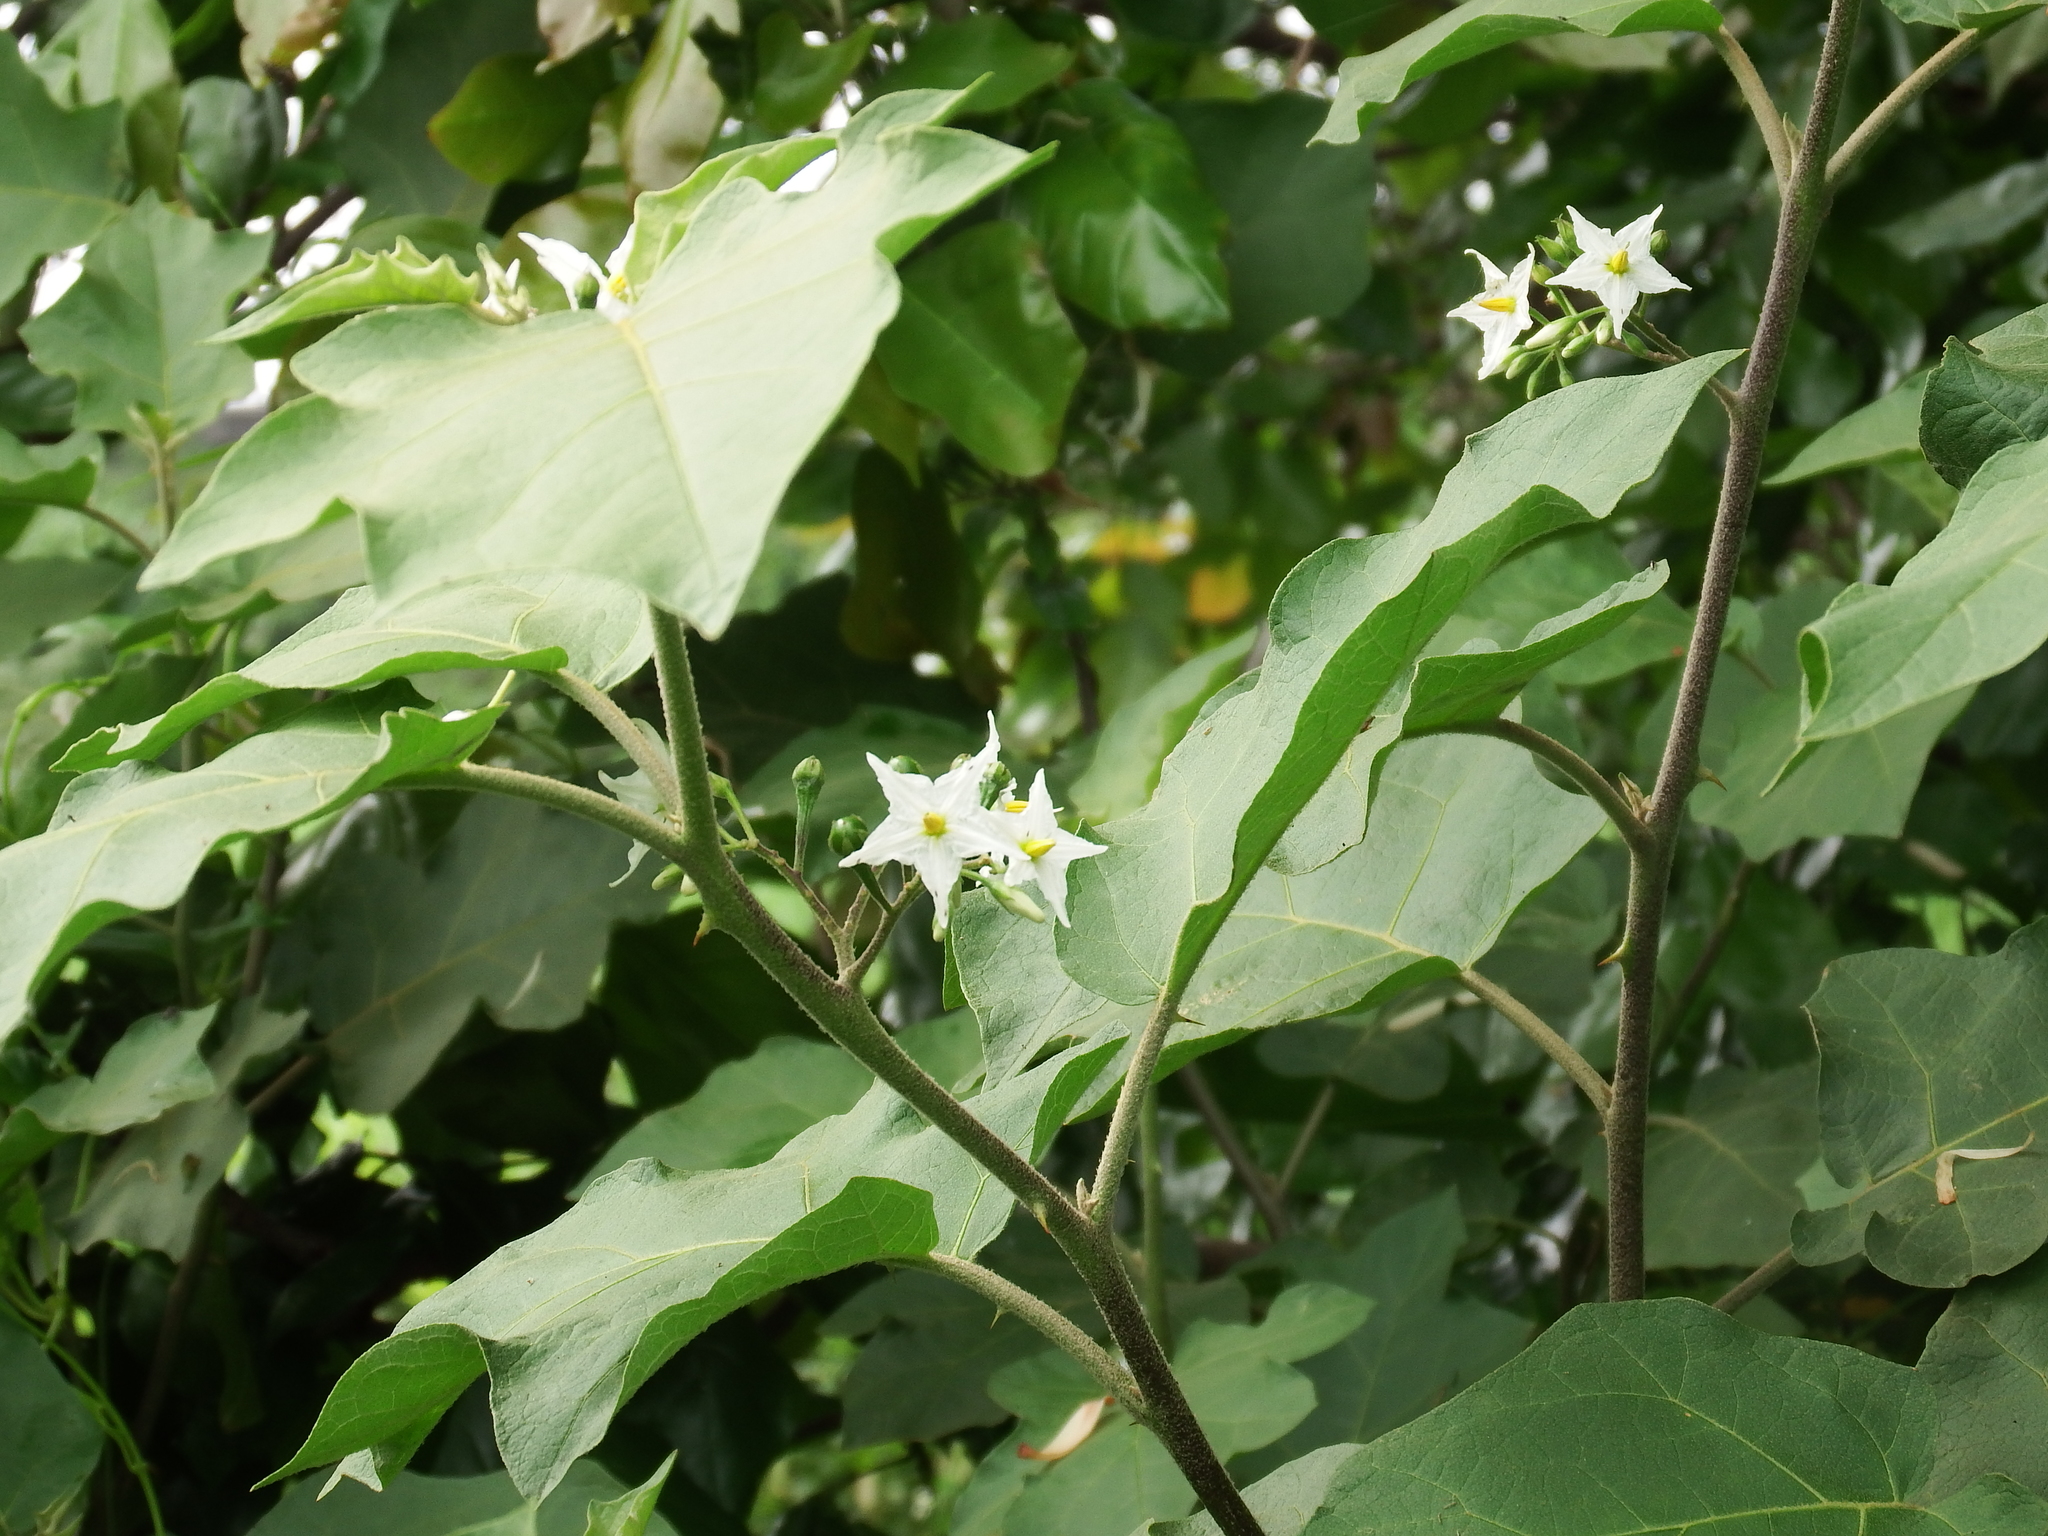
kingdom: Plantae
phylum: Tracheophyta
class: Magnoliopsida
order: Solanales
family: Solanaceae
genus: Solanum
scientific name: Solanum torvum
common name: Turkey berry
